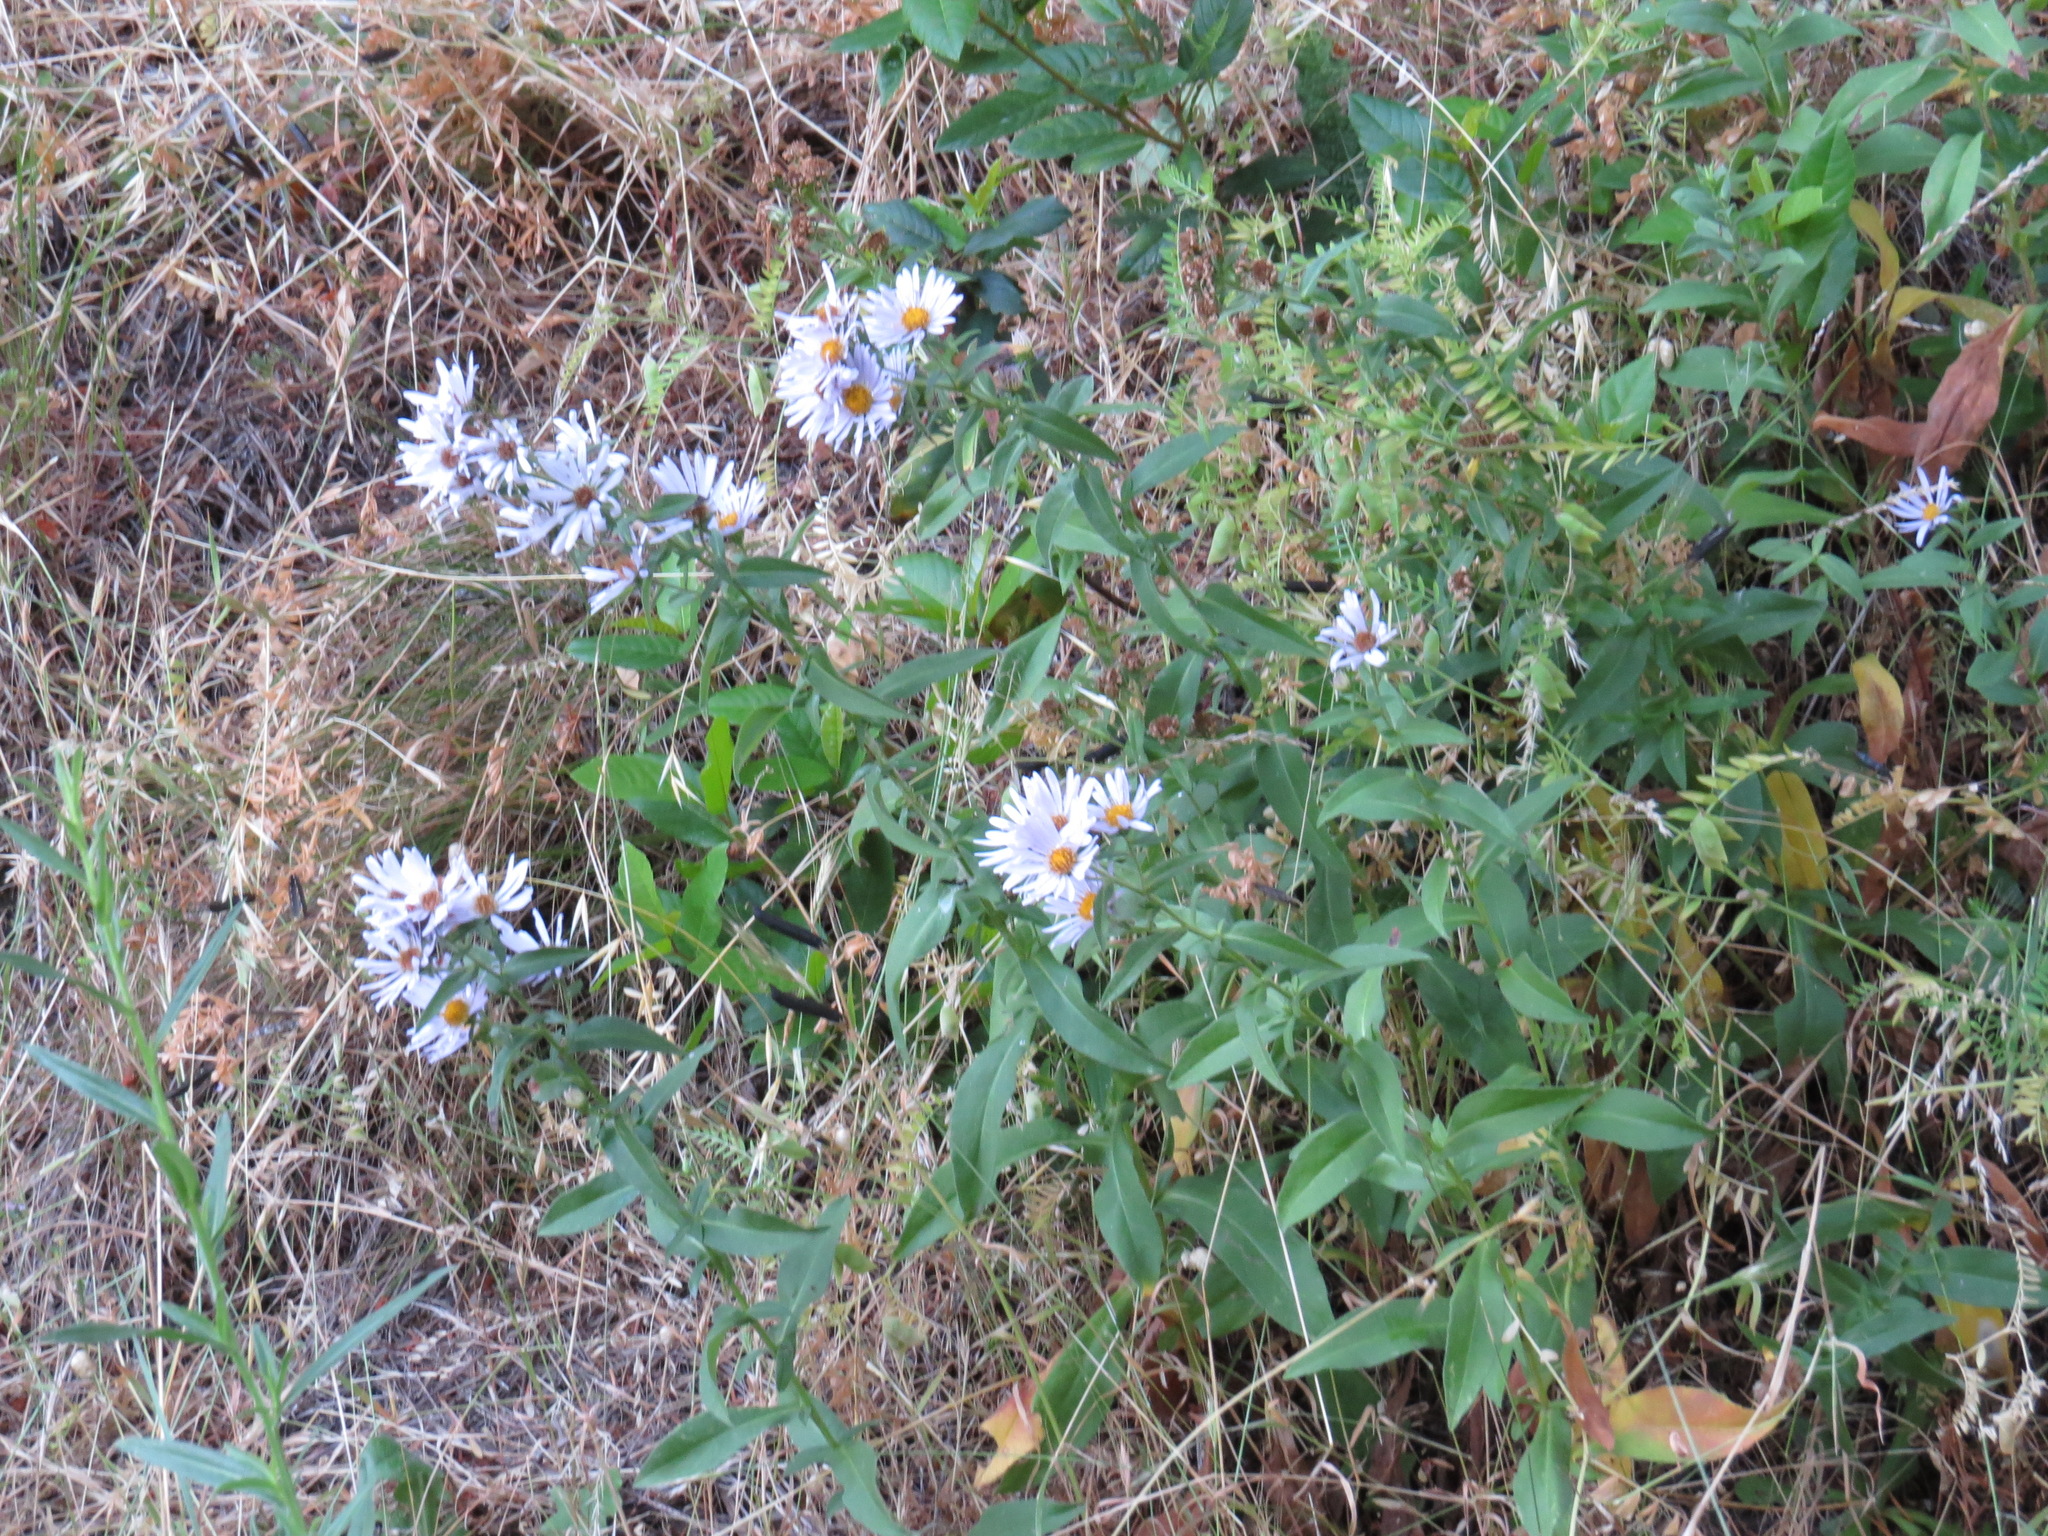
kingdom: Animalia
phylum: Arthropoda
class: Insecta
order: Diptera
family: Agromyzidae
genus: Calycomyza
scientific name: Calycomyza promissa
